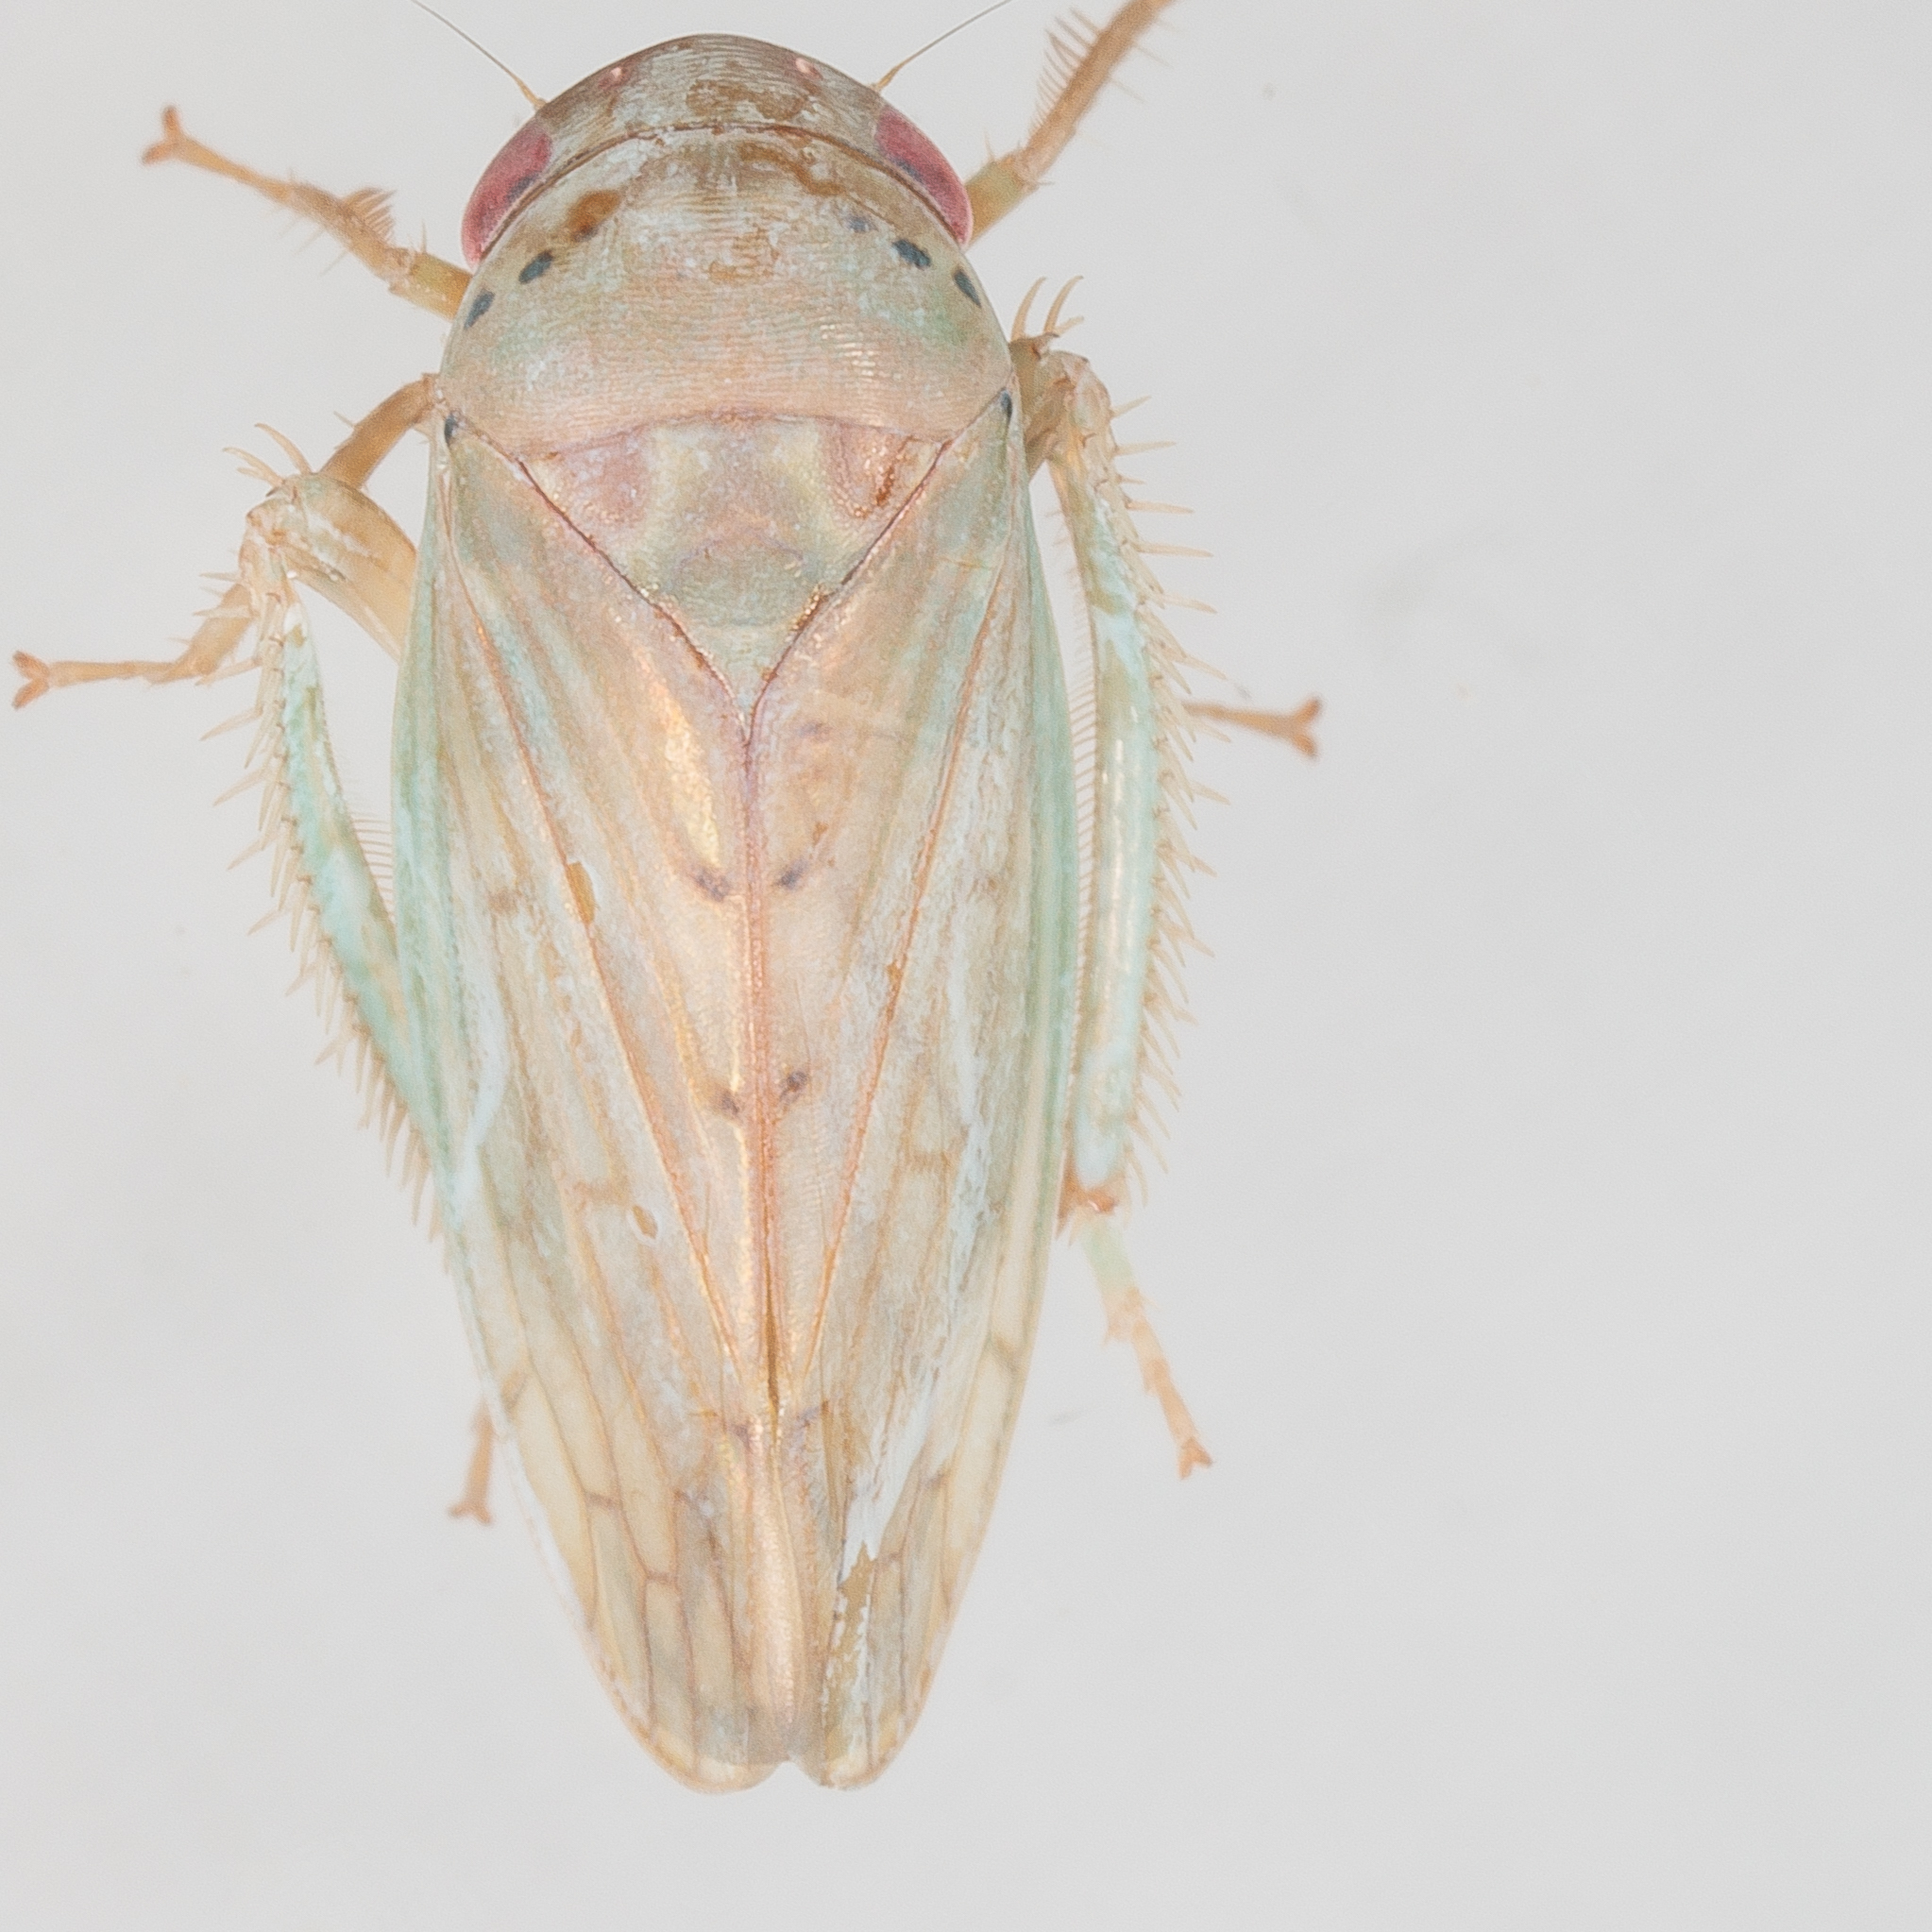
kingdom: Animalia
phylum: Arthropoda
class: Insecta
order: Hemiptera
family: Cicadellidae
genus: Polana
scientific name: Polana quadrinotata
